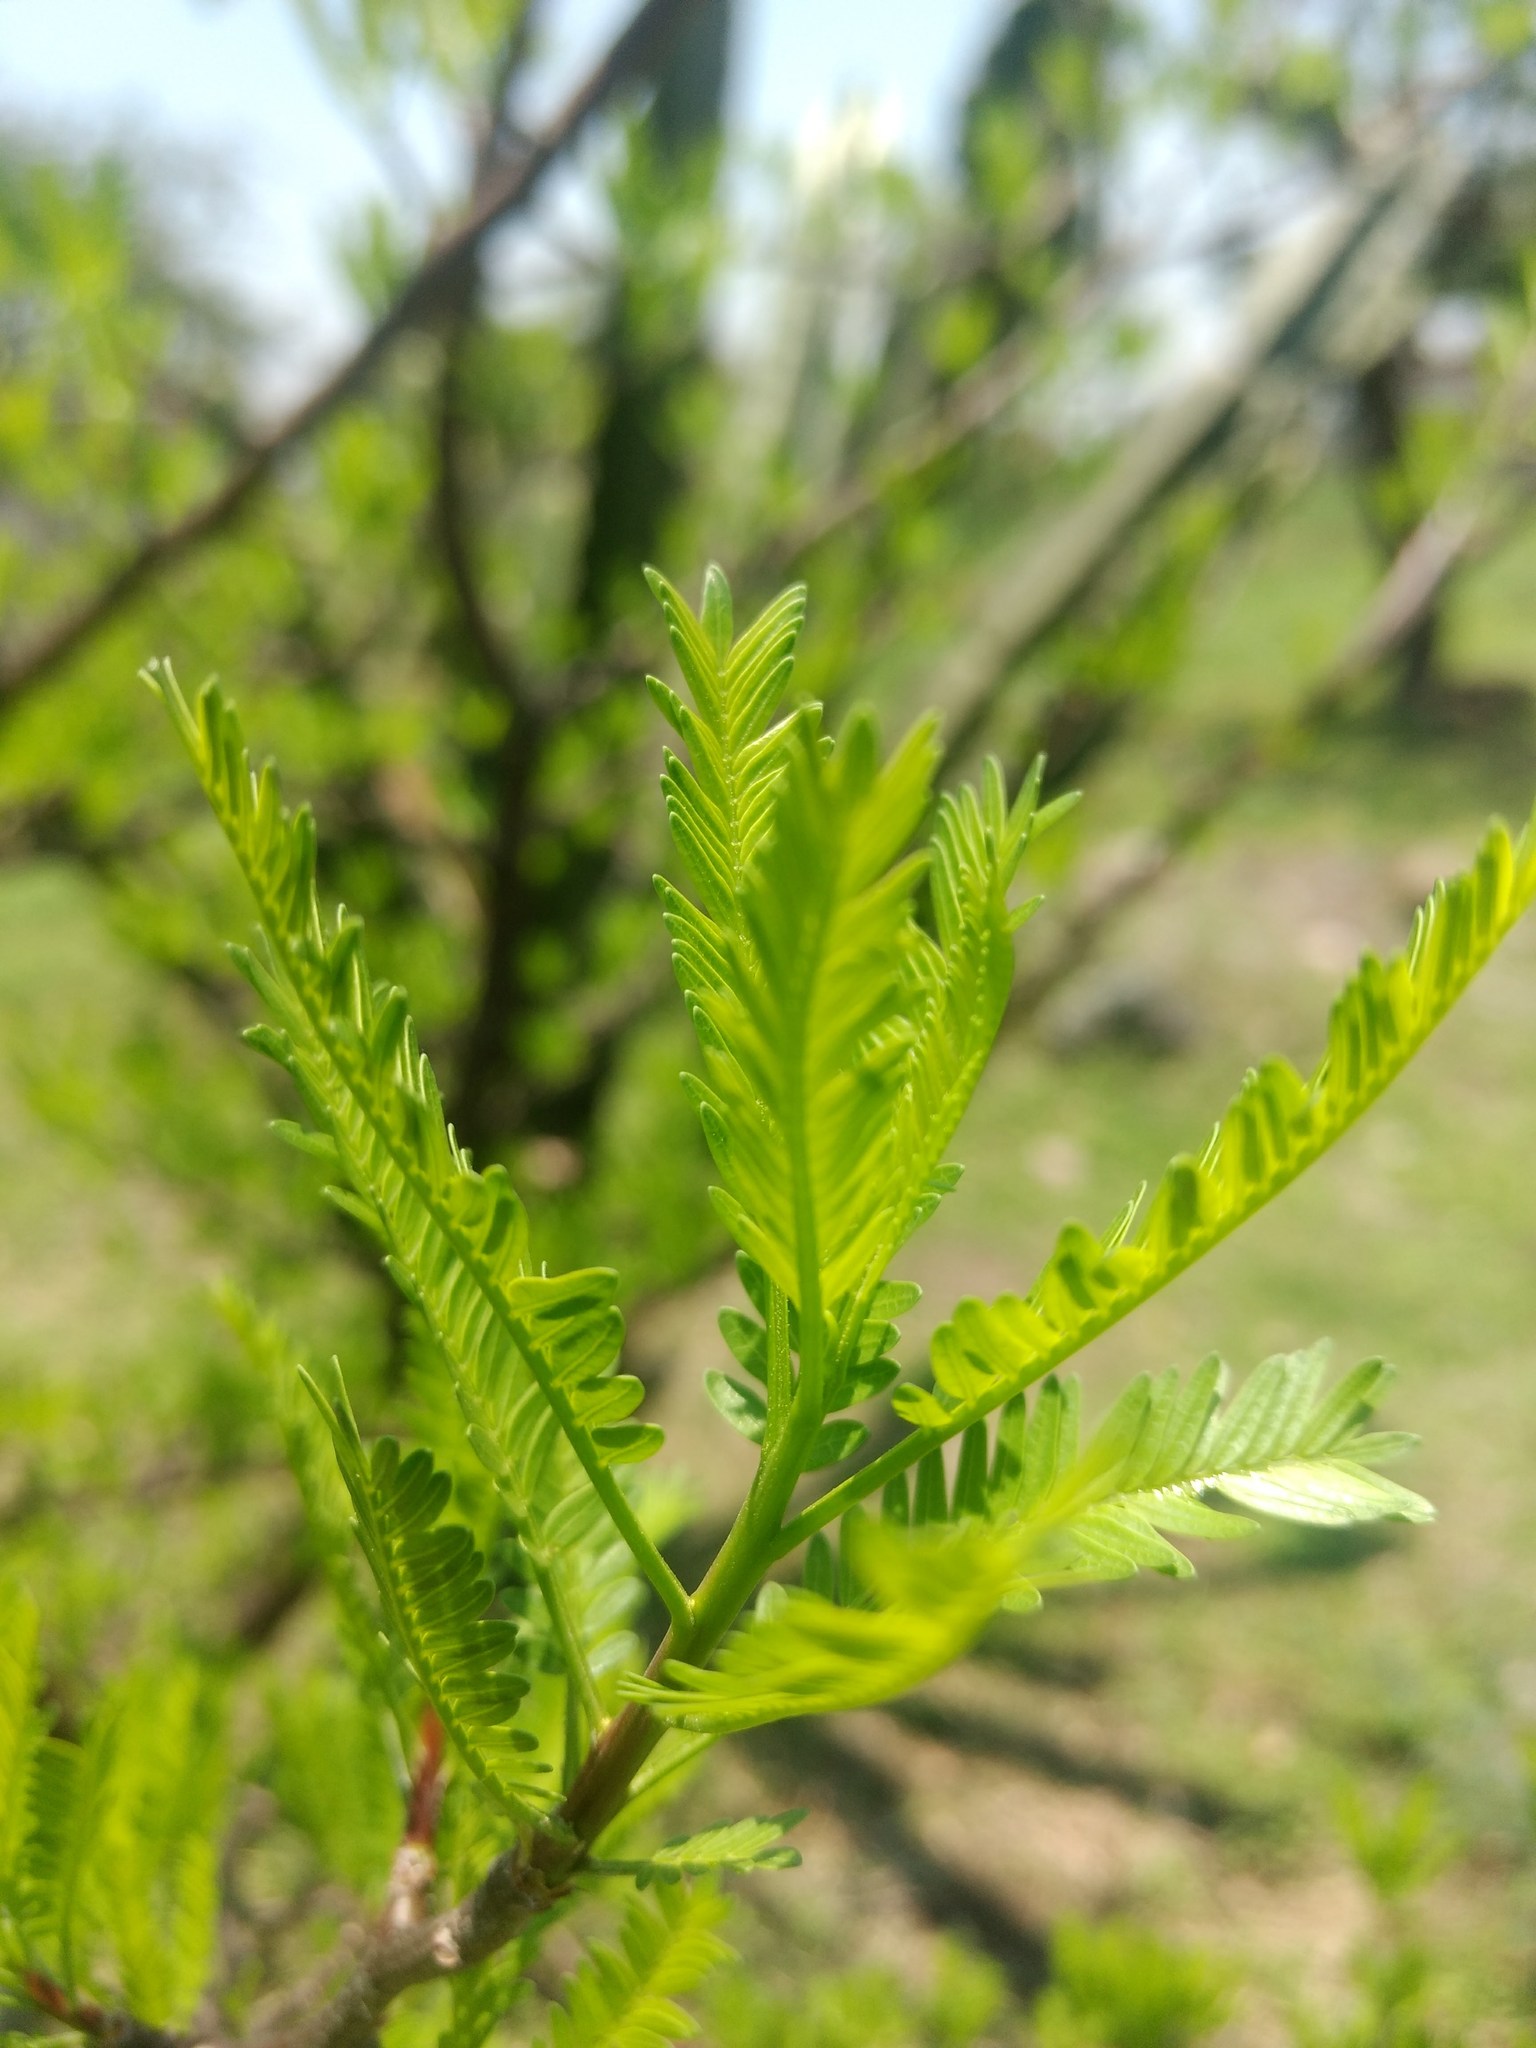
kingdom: Plantae
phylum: Tracheophyta
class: Magnoliopsida
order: Sapindales
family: Burseraceae
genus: Bursera
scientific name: Bursera morelensis
